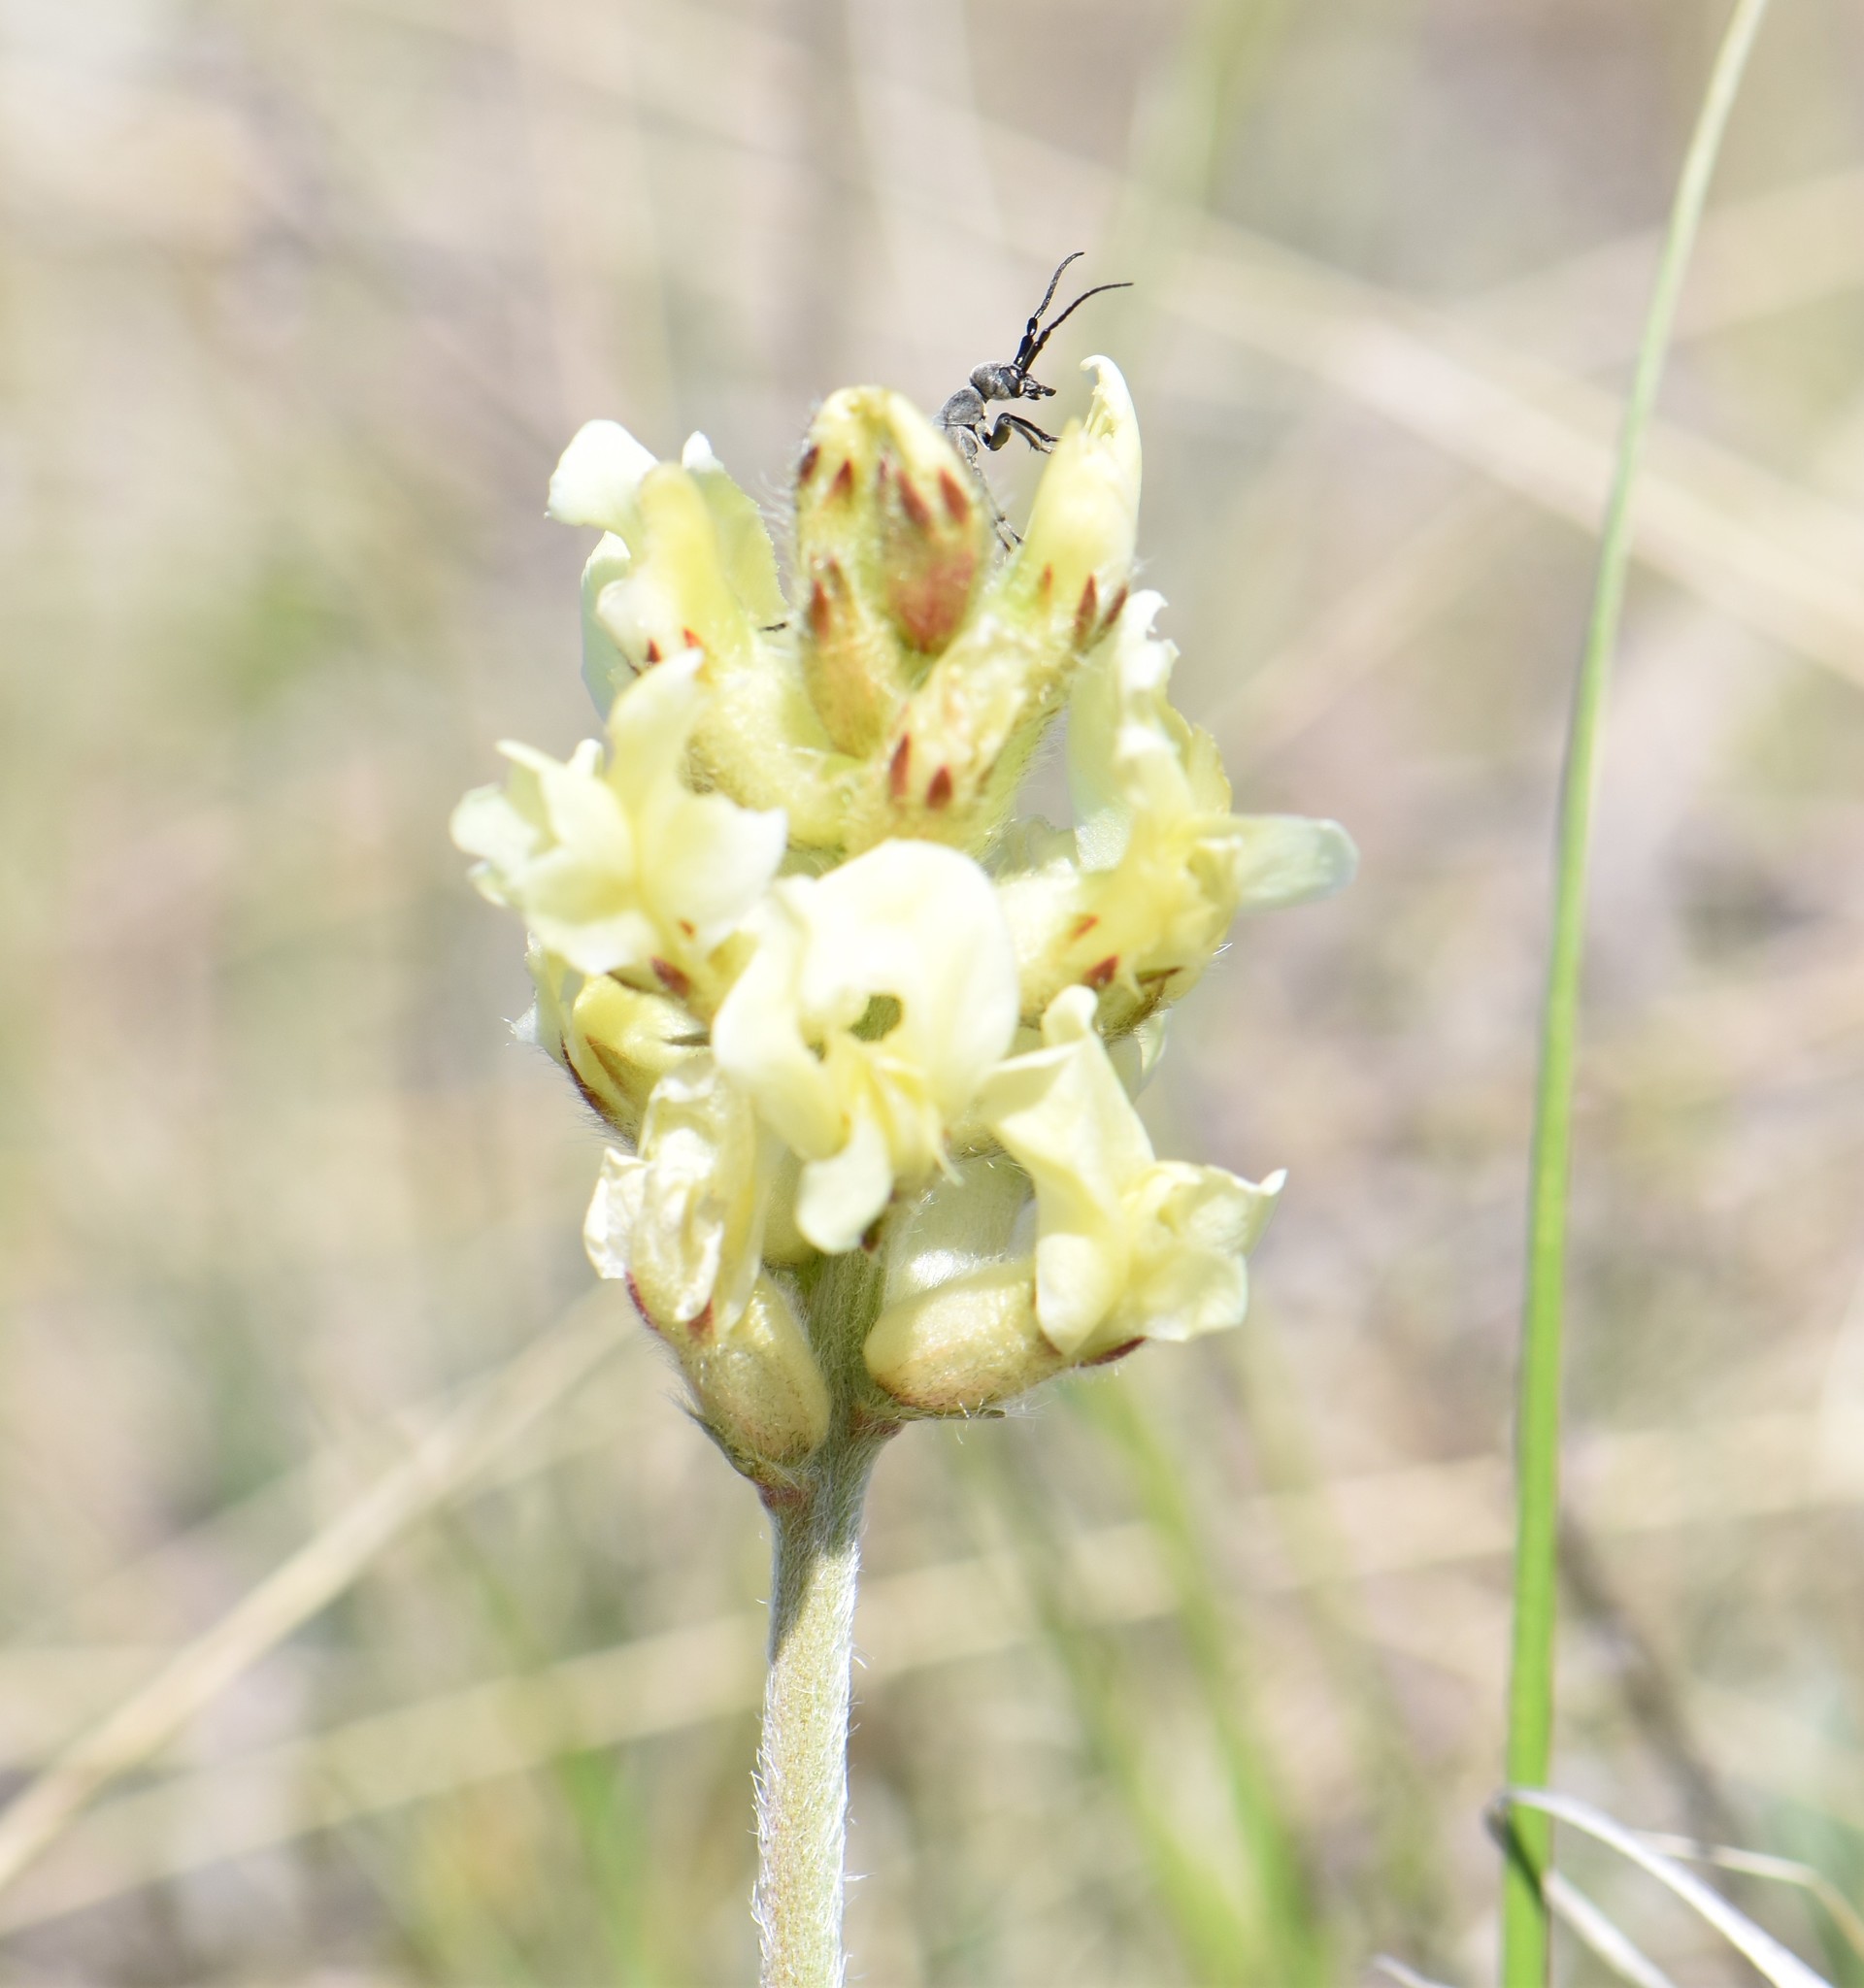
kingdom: Plantae
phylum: Tracheophyta
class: Magnoliopsida
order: Fabales
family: Fabaceae
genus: Oxytropis
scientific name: Oxytropis sericea
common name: Silky locoweed
